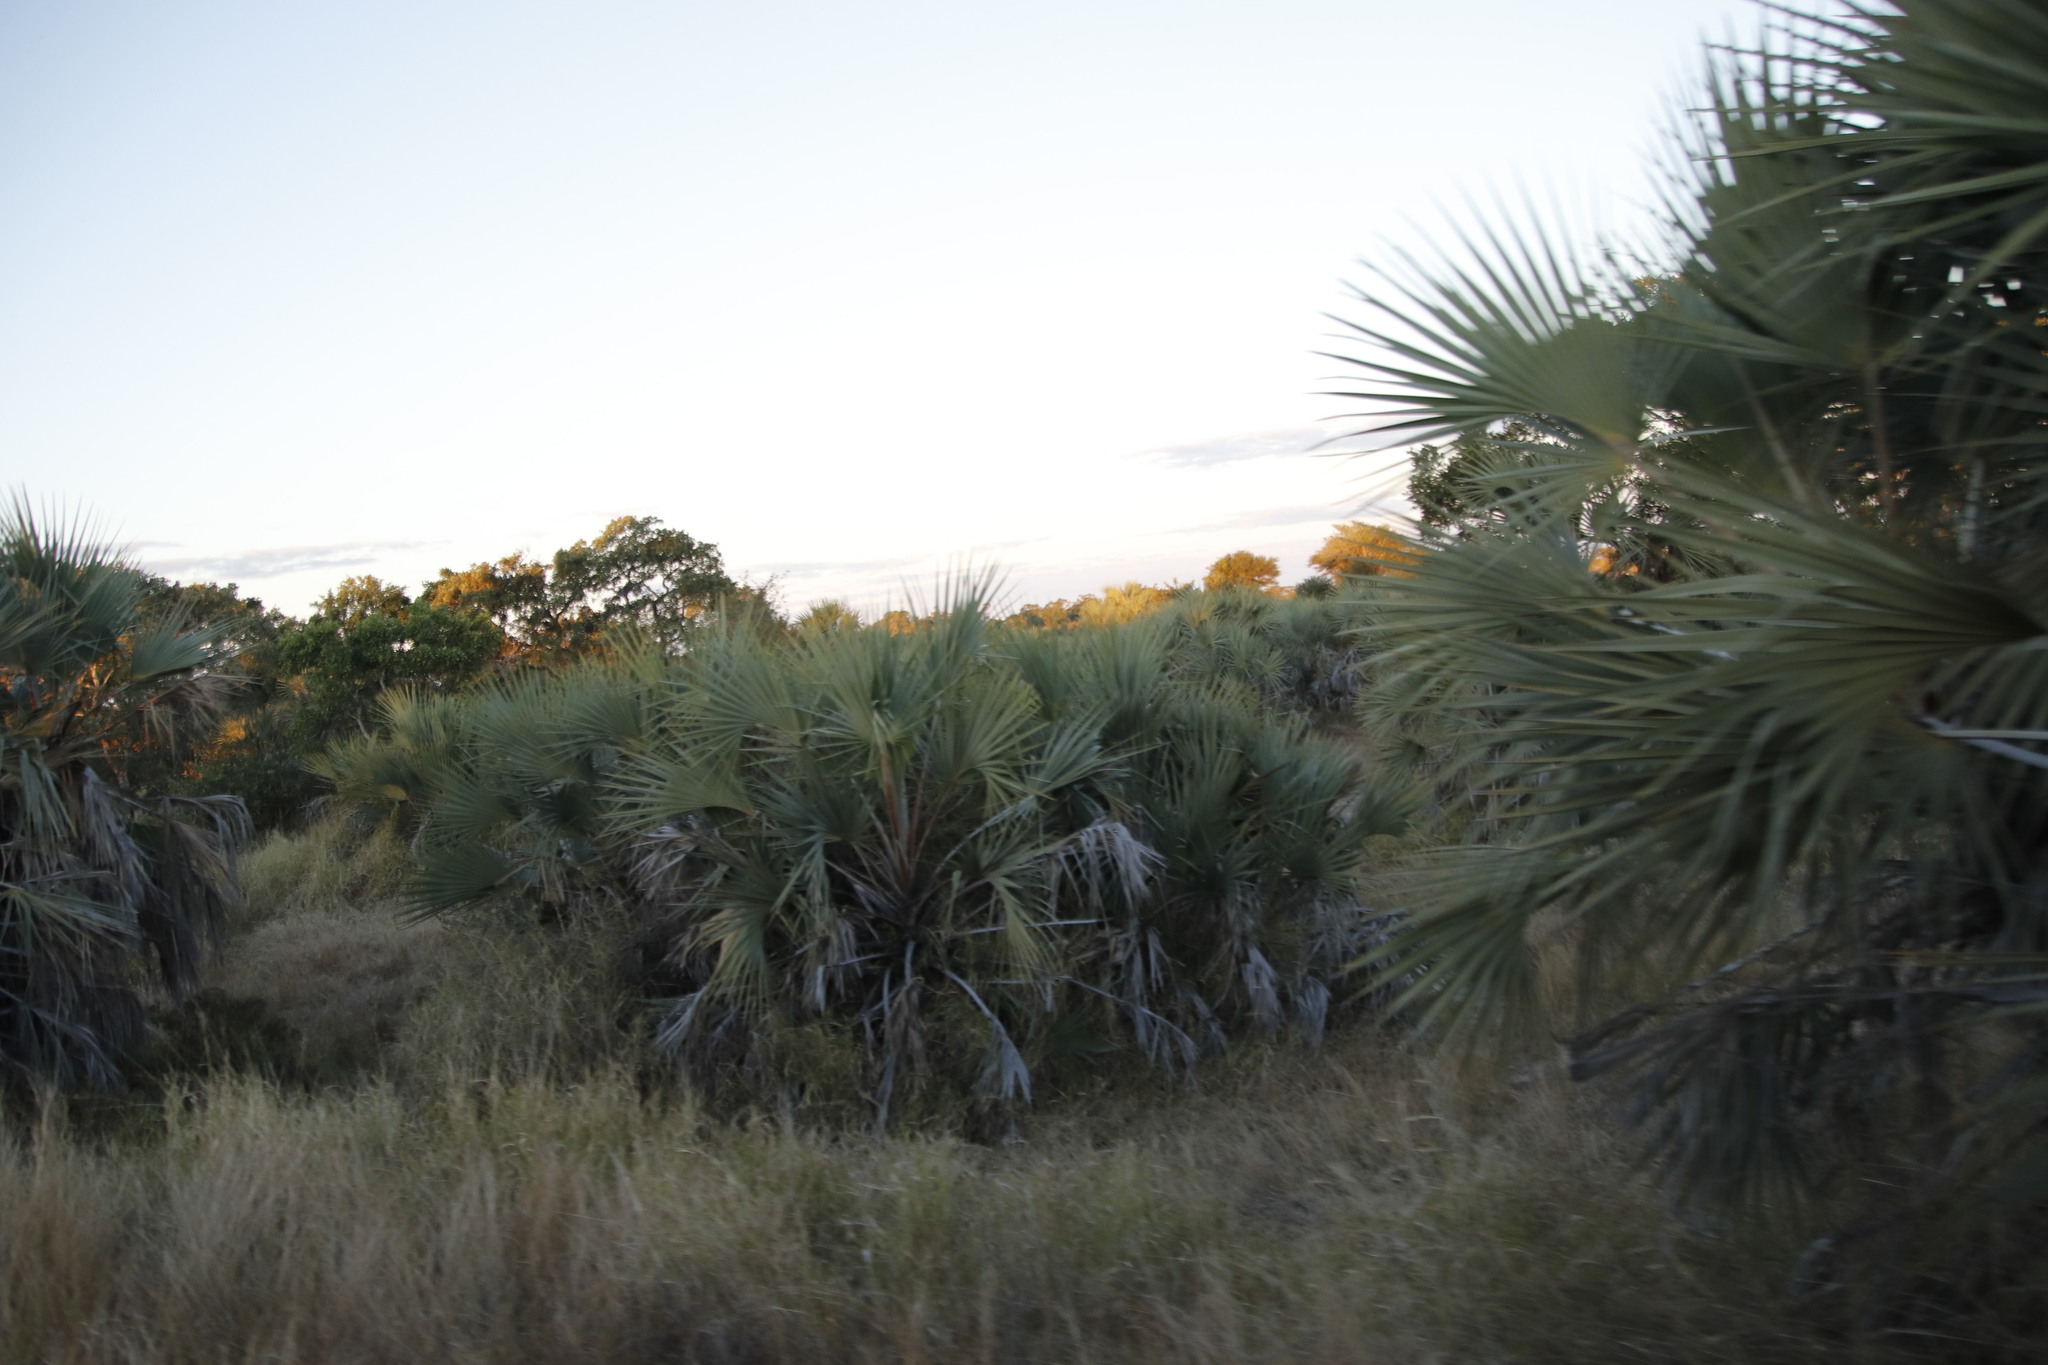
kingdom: Plantae
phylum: Tracheophyta
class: Liliopsida
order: Arecales
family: Arecaceae
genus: Hyphaene
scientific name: Hyphaene coriacea
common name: Ilala palm
